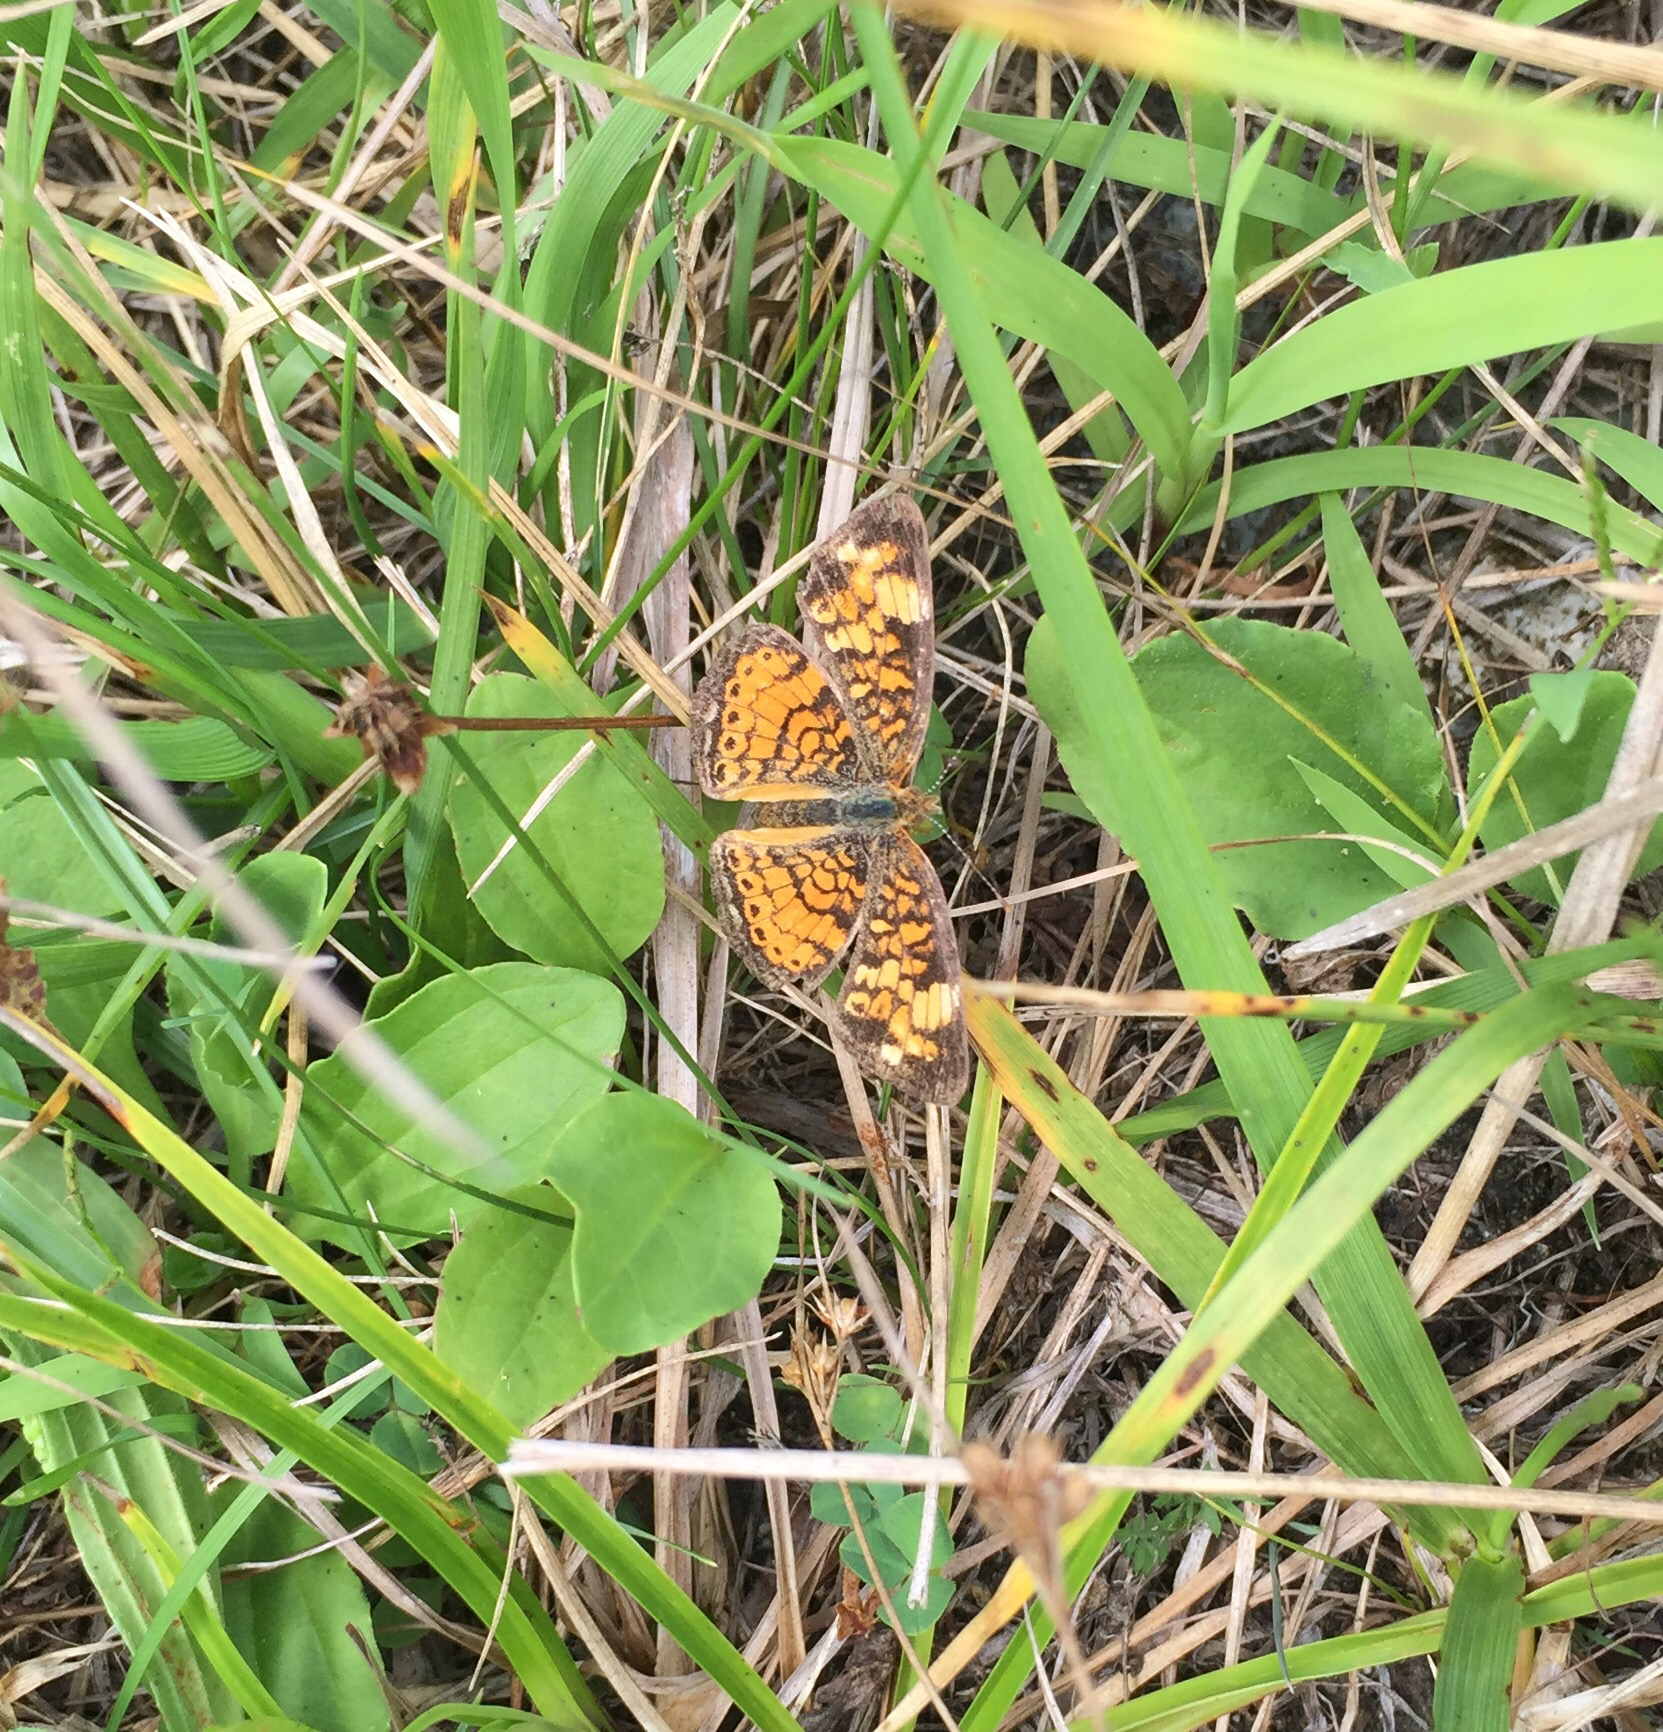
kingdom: Animalia
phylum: Arthropoda
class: Insecta
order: Lepidoptera
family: Nymphalidae
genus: Phyciodes
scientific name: Phyciodes tharos
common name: Pearl crescent
